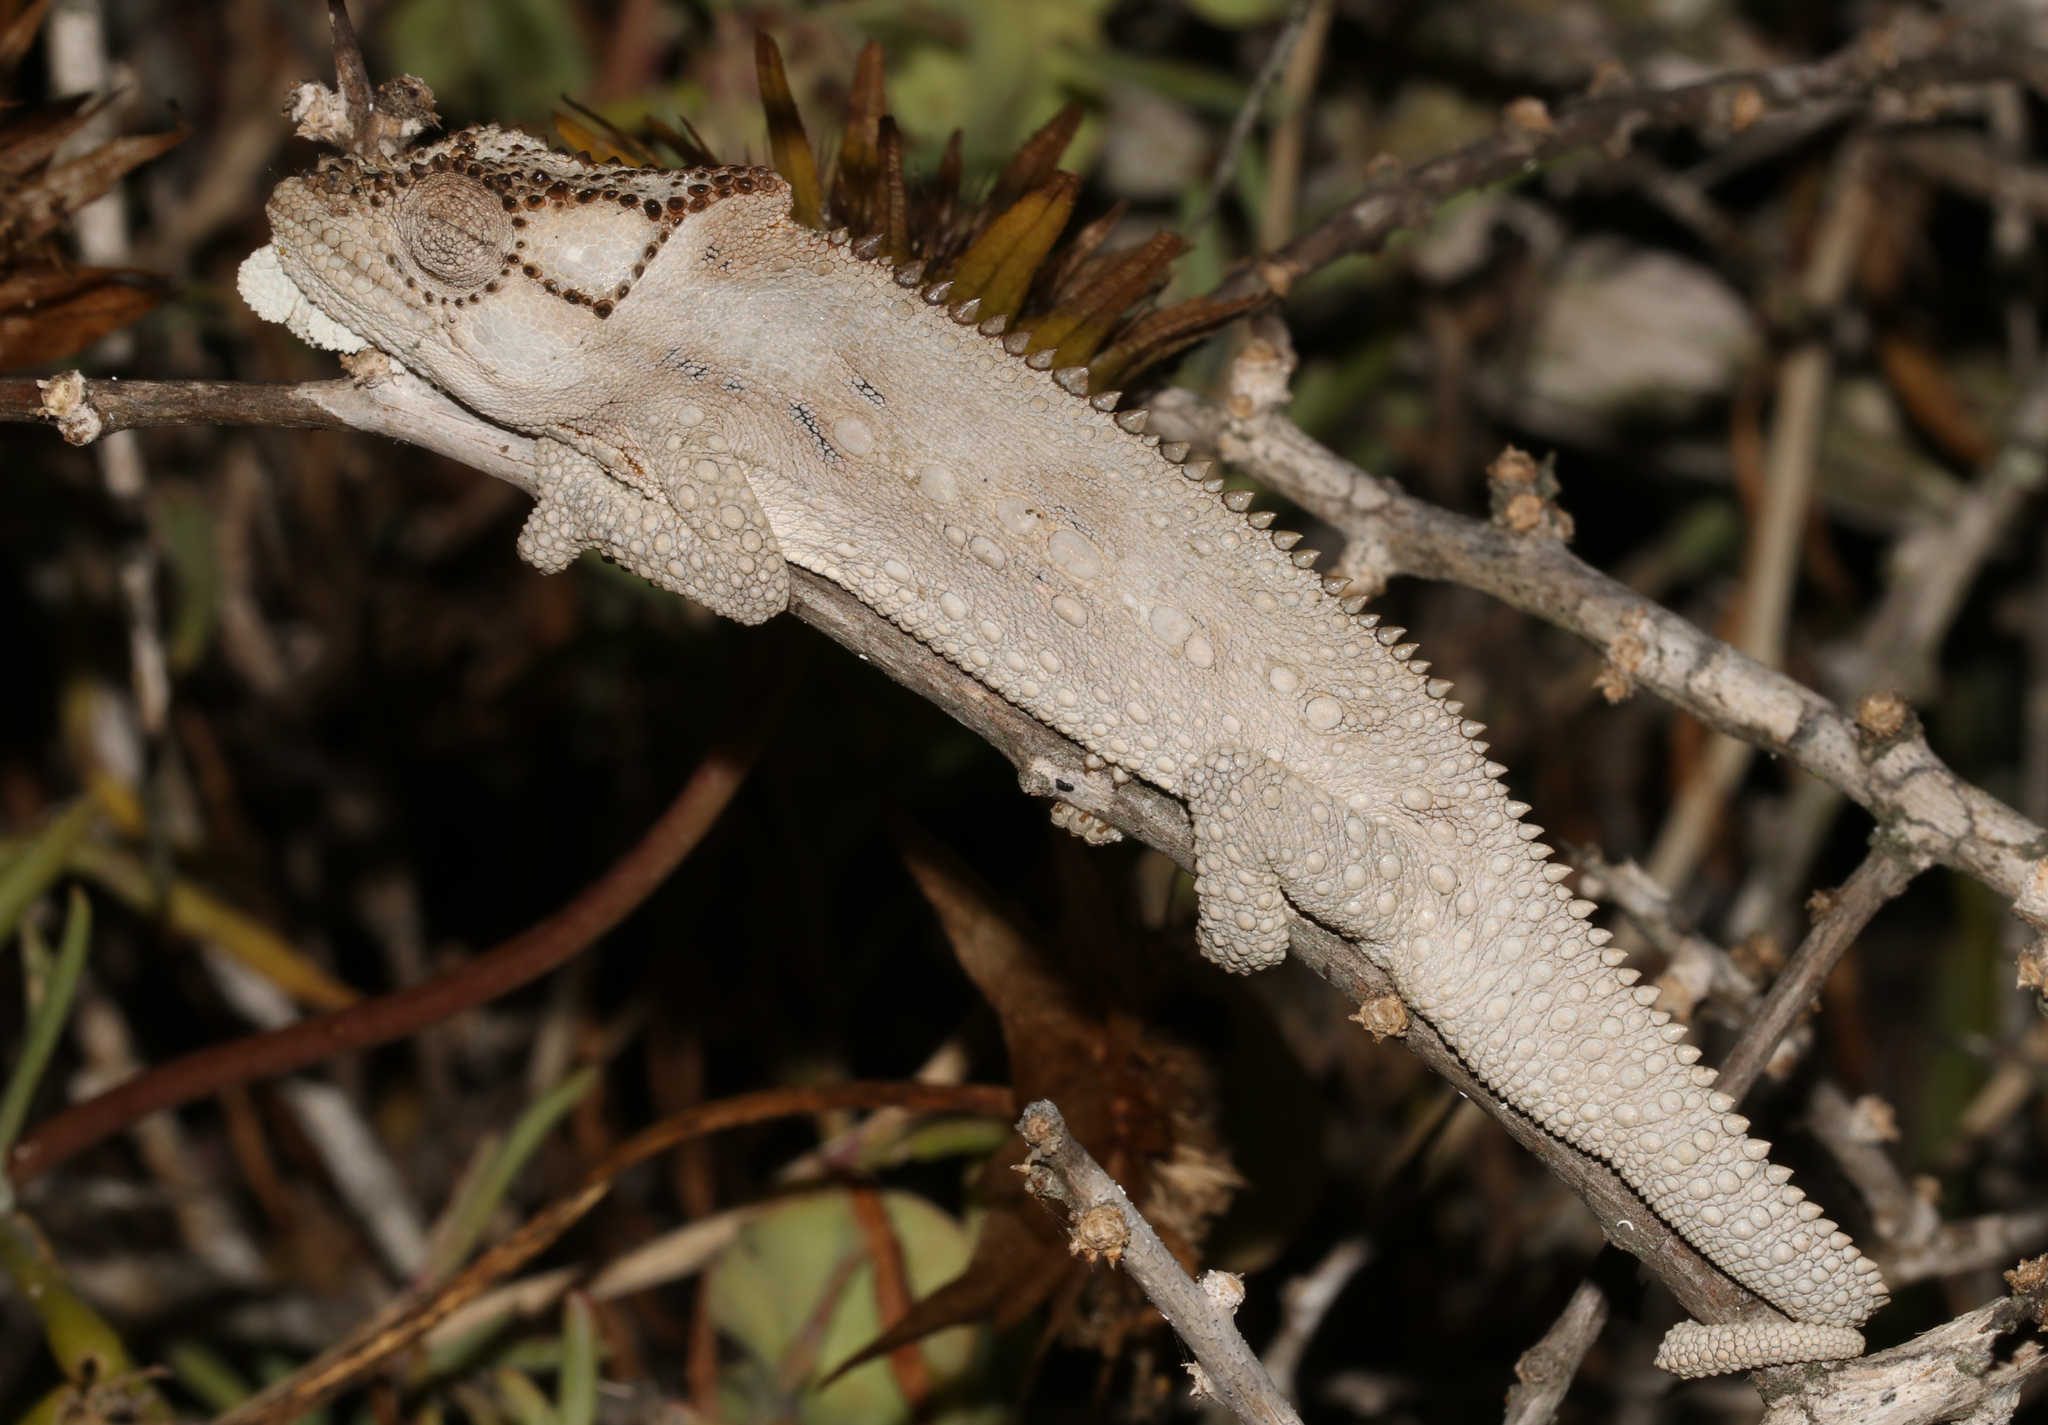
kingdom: Animalia
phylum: Chordata
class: Squamata
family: Chamaeleonidae
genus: Bradypodion
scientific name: Bradypodion occidentale
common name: Western dwarf chameleon
